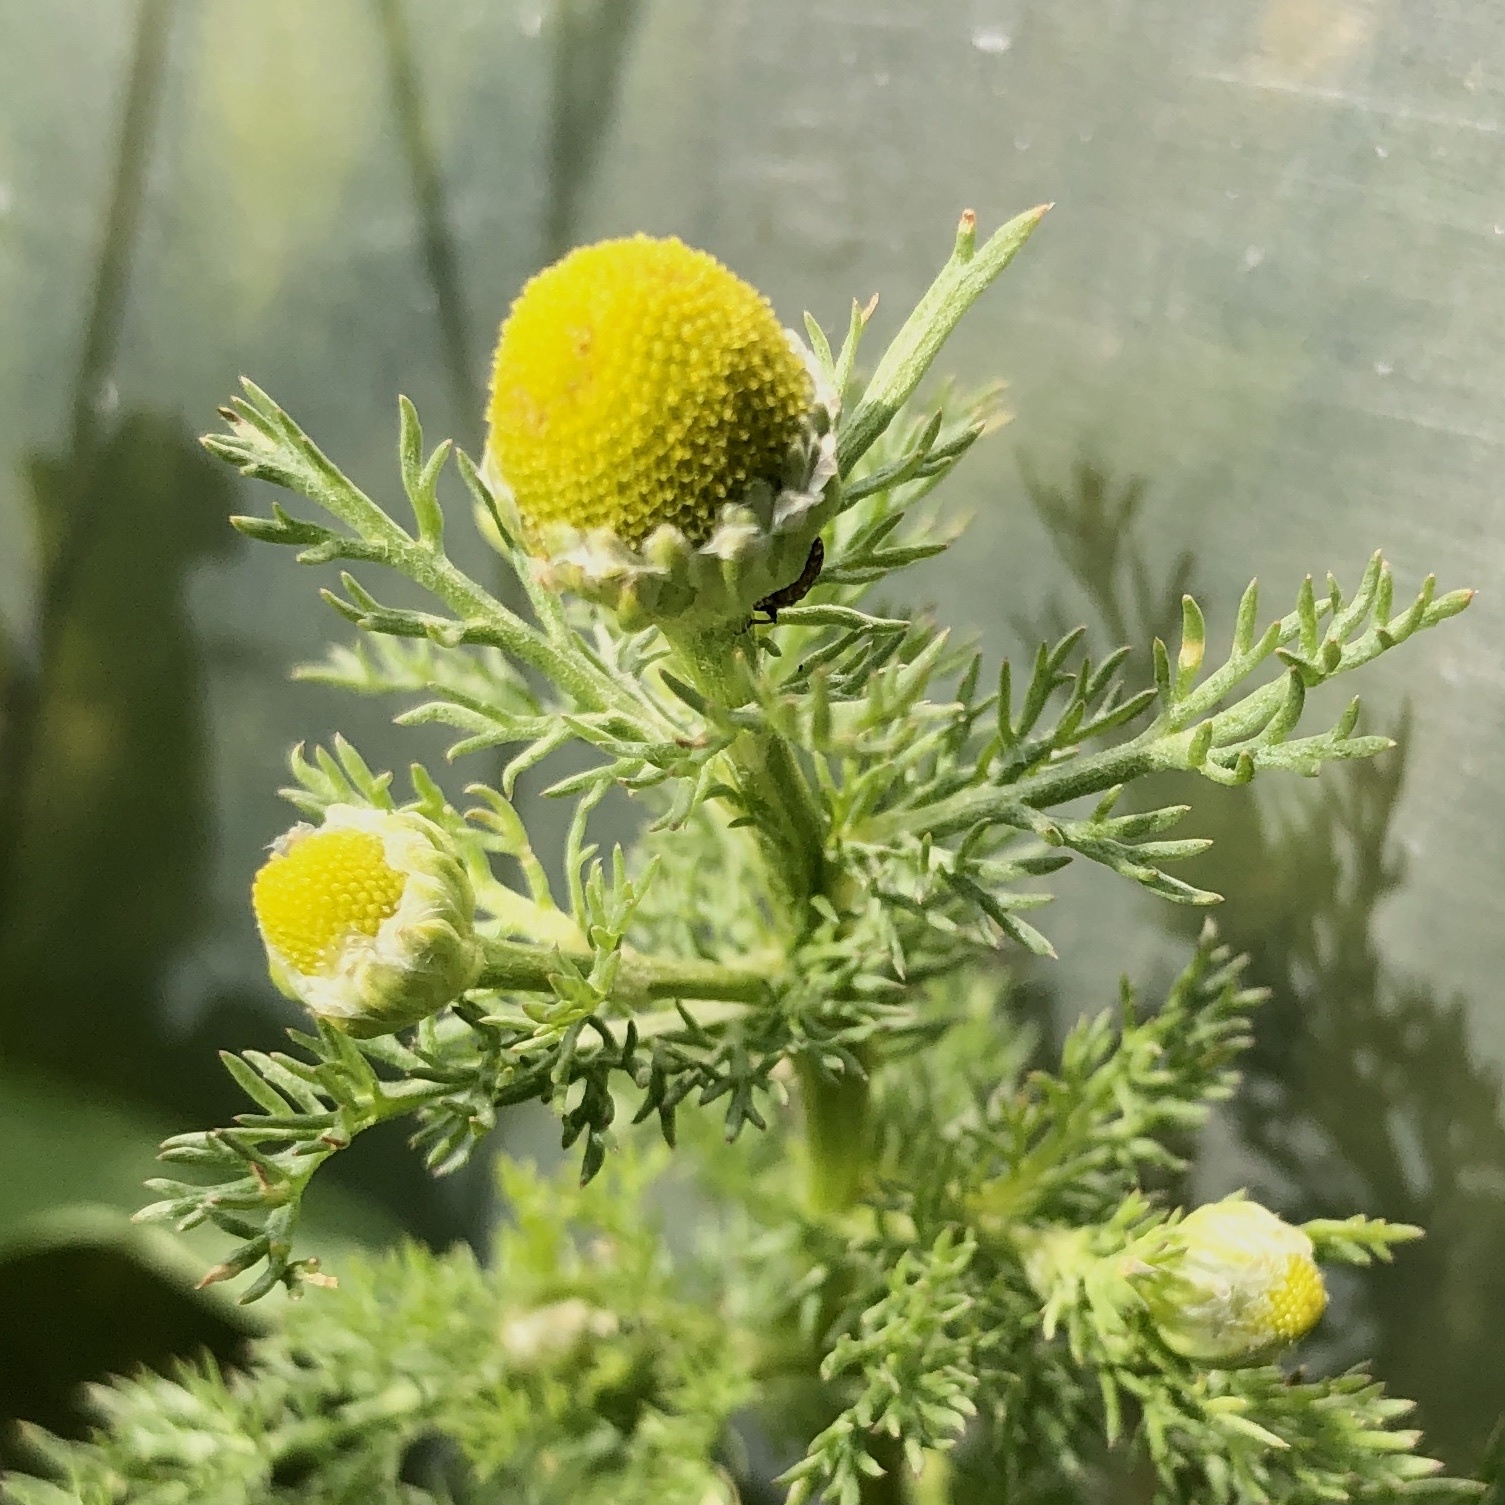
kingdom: Plantae
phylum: Tracheophyta
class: Magnoliopsida
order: Asterales
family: Asteraceae
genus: Matricaria
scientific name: Matricaria discoidea
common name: Disc mayweed
